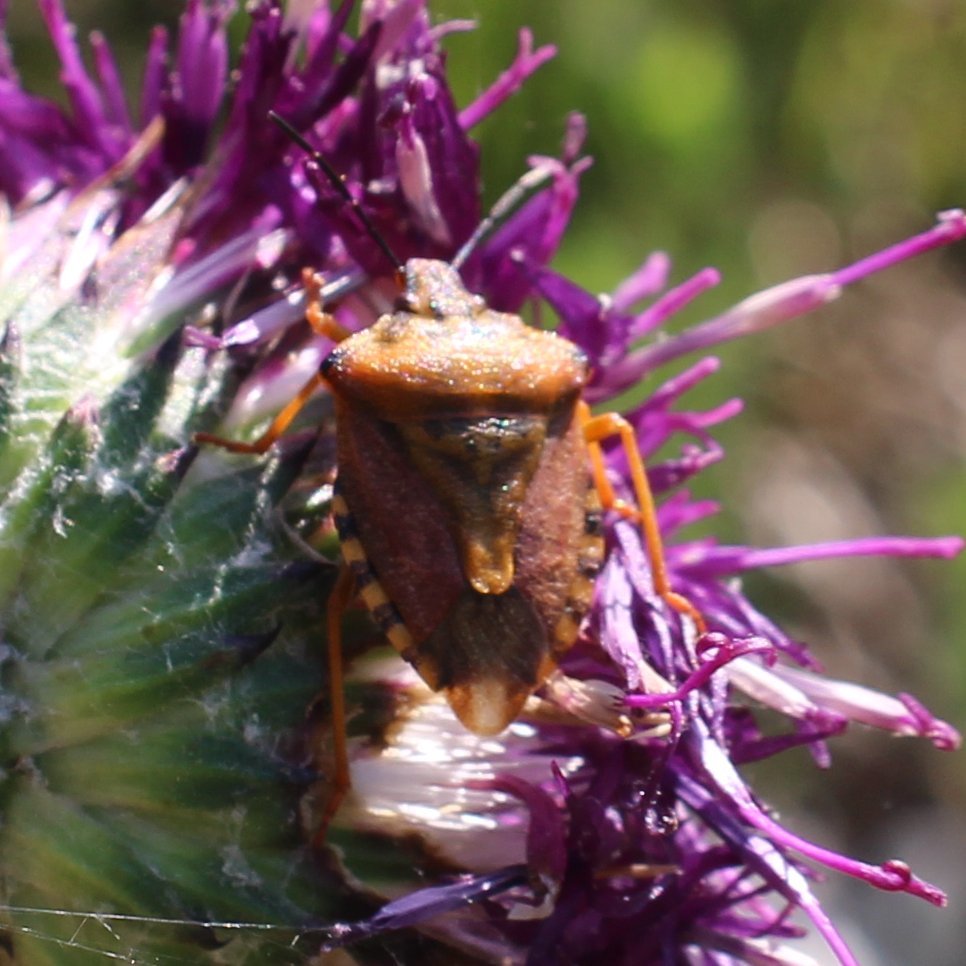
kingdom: Animalia
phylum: Arthropoda
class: Insecta
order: Hemiptera
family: Pentatomidae
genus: Carpocoris
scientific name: Carpocoris purpureipennis
